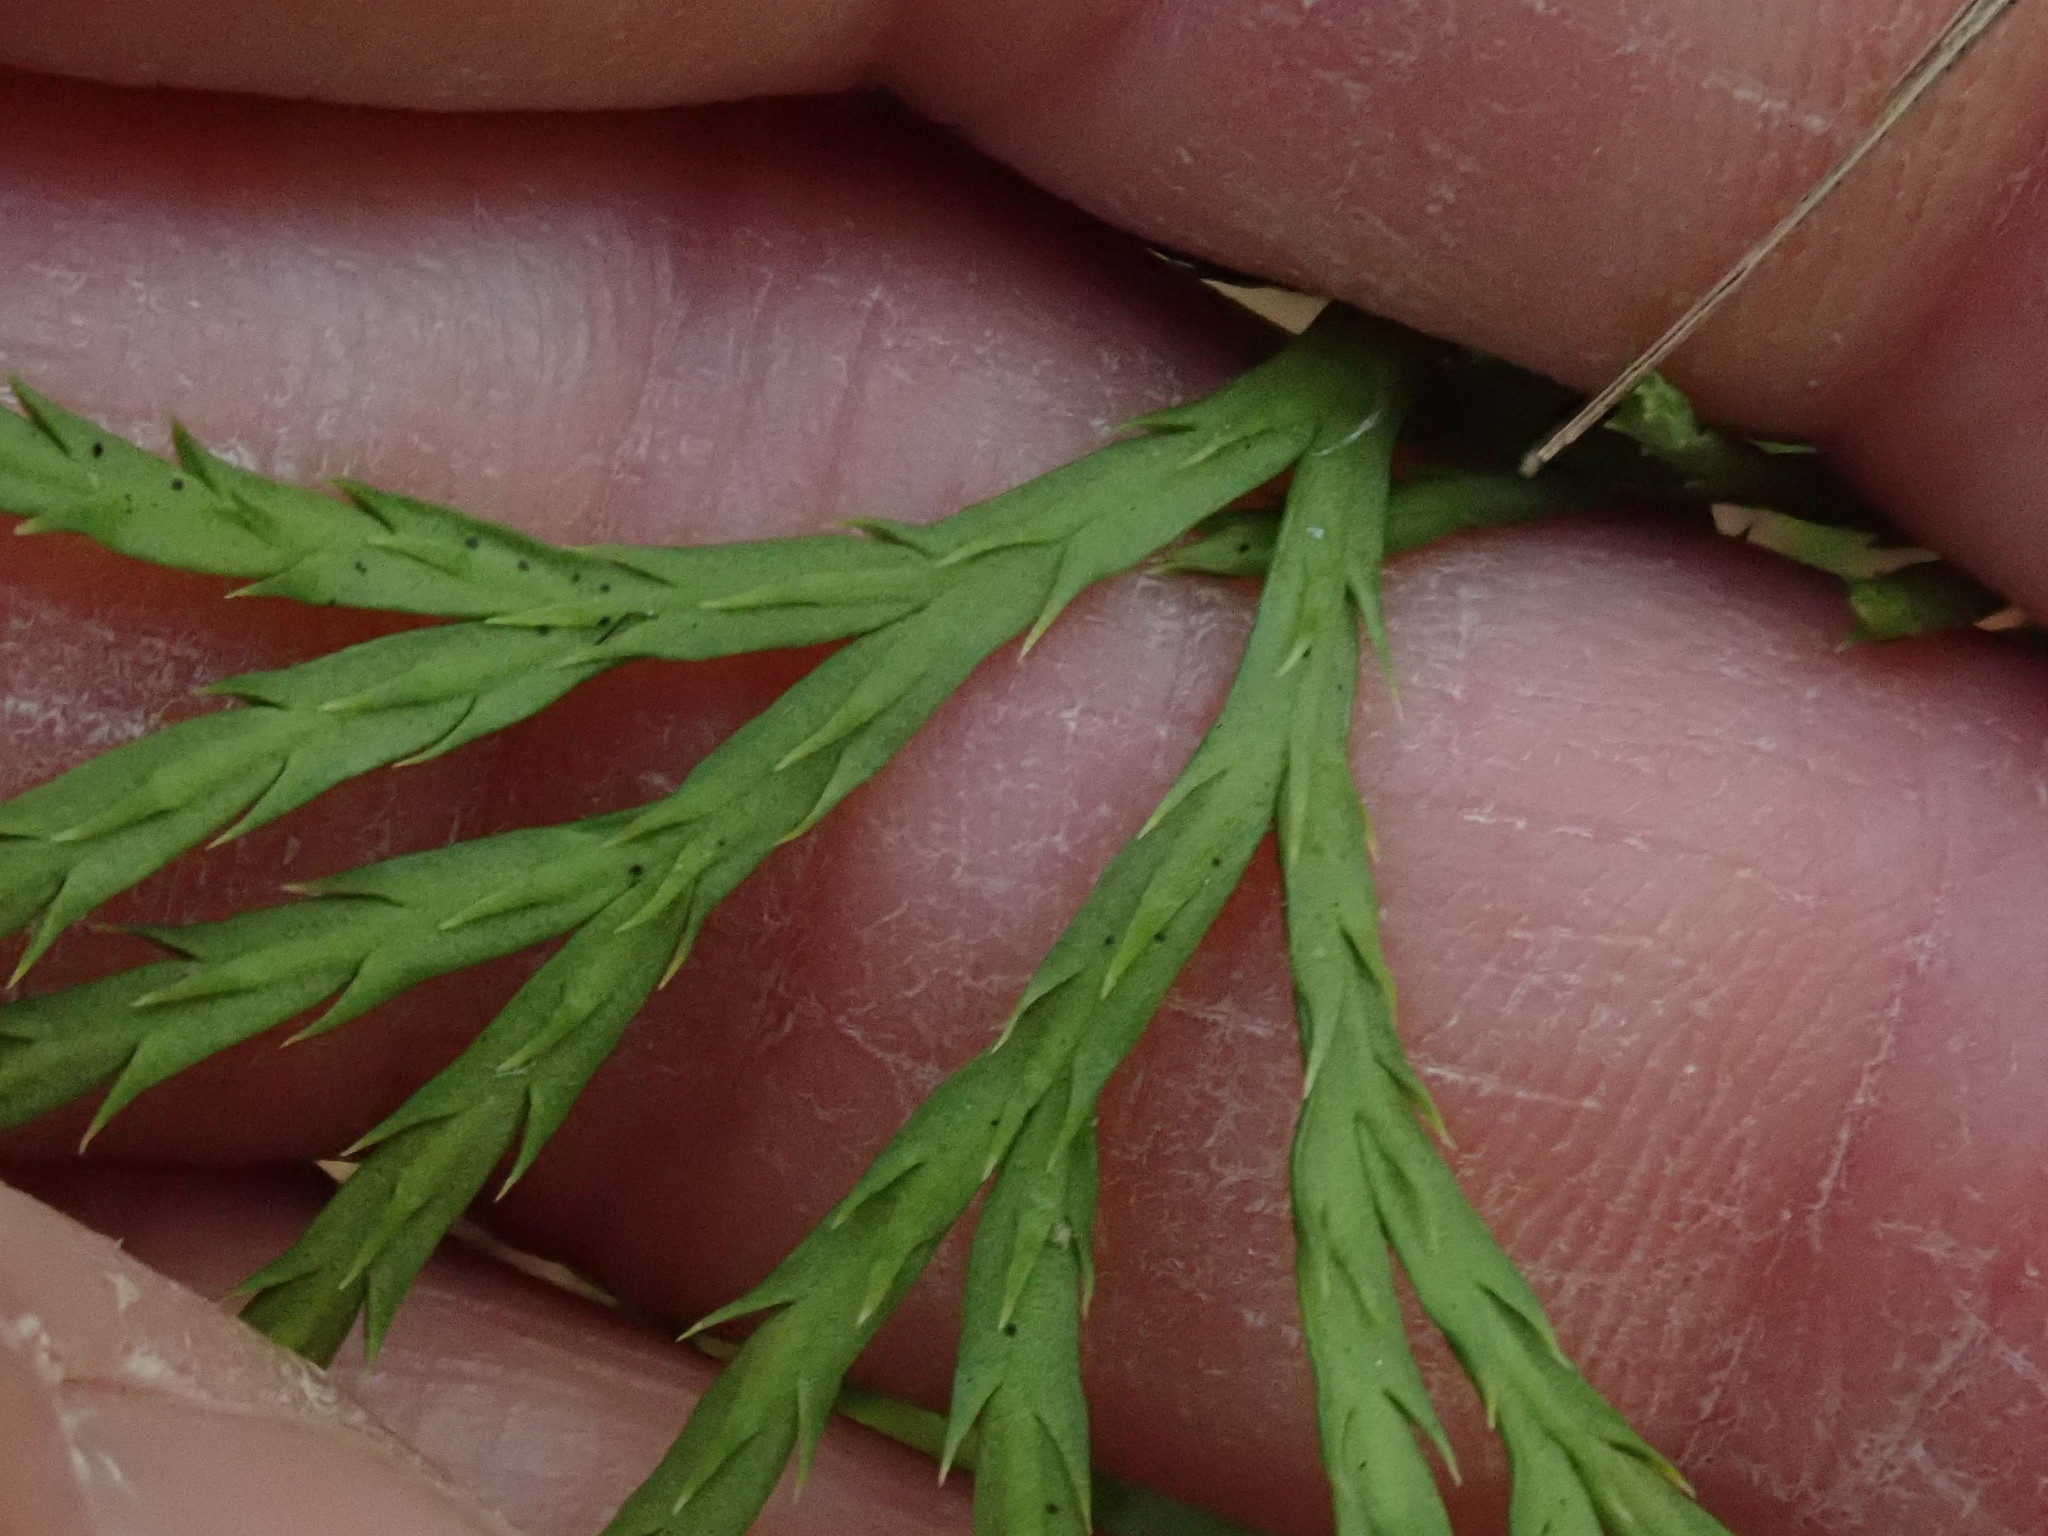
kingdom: Plantae
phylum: Tracheophyta
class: Lycopodiopsida
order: Lycopodiales
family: Lycopodiaceae
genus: Diphasiastrum
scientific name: Diphasiastrum digitatum
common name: Southern running-pine
